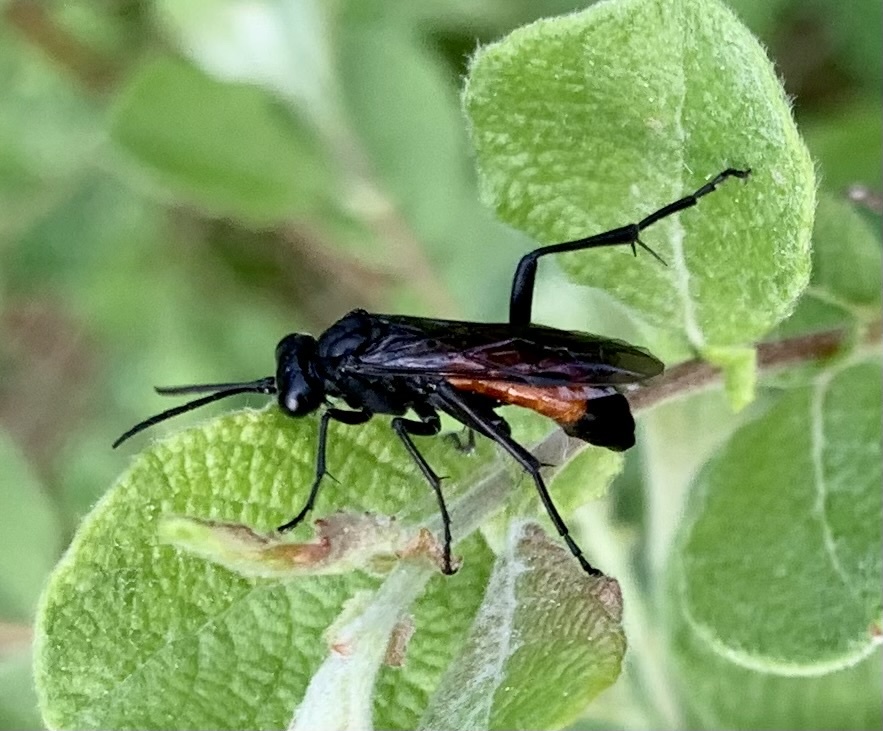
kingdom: Animalia
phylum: Arthropoda
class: Insecta
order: Hymenoptera
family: Tenthredinidae
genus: Macrophya
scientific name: Macrophya annulata
